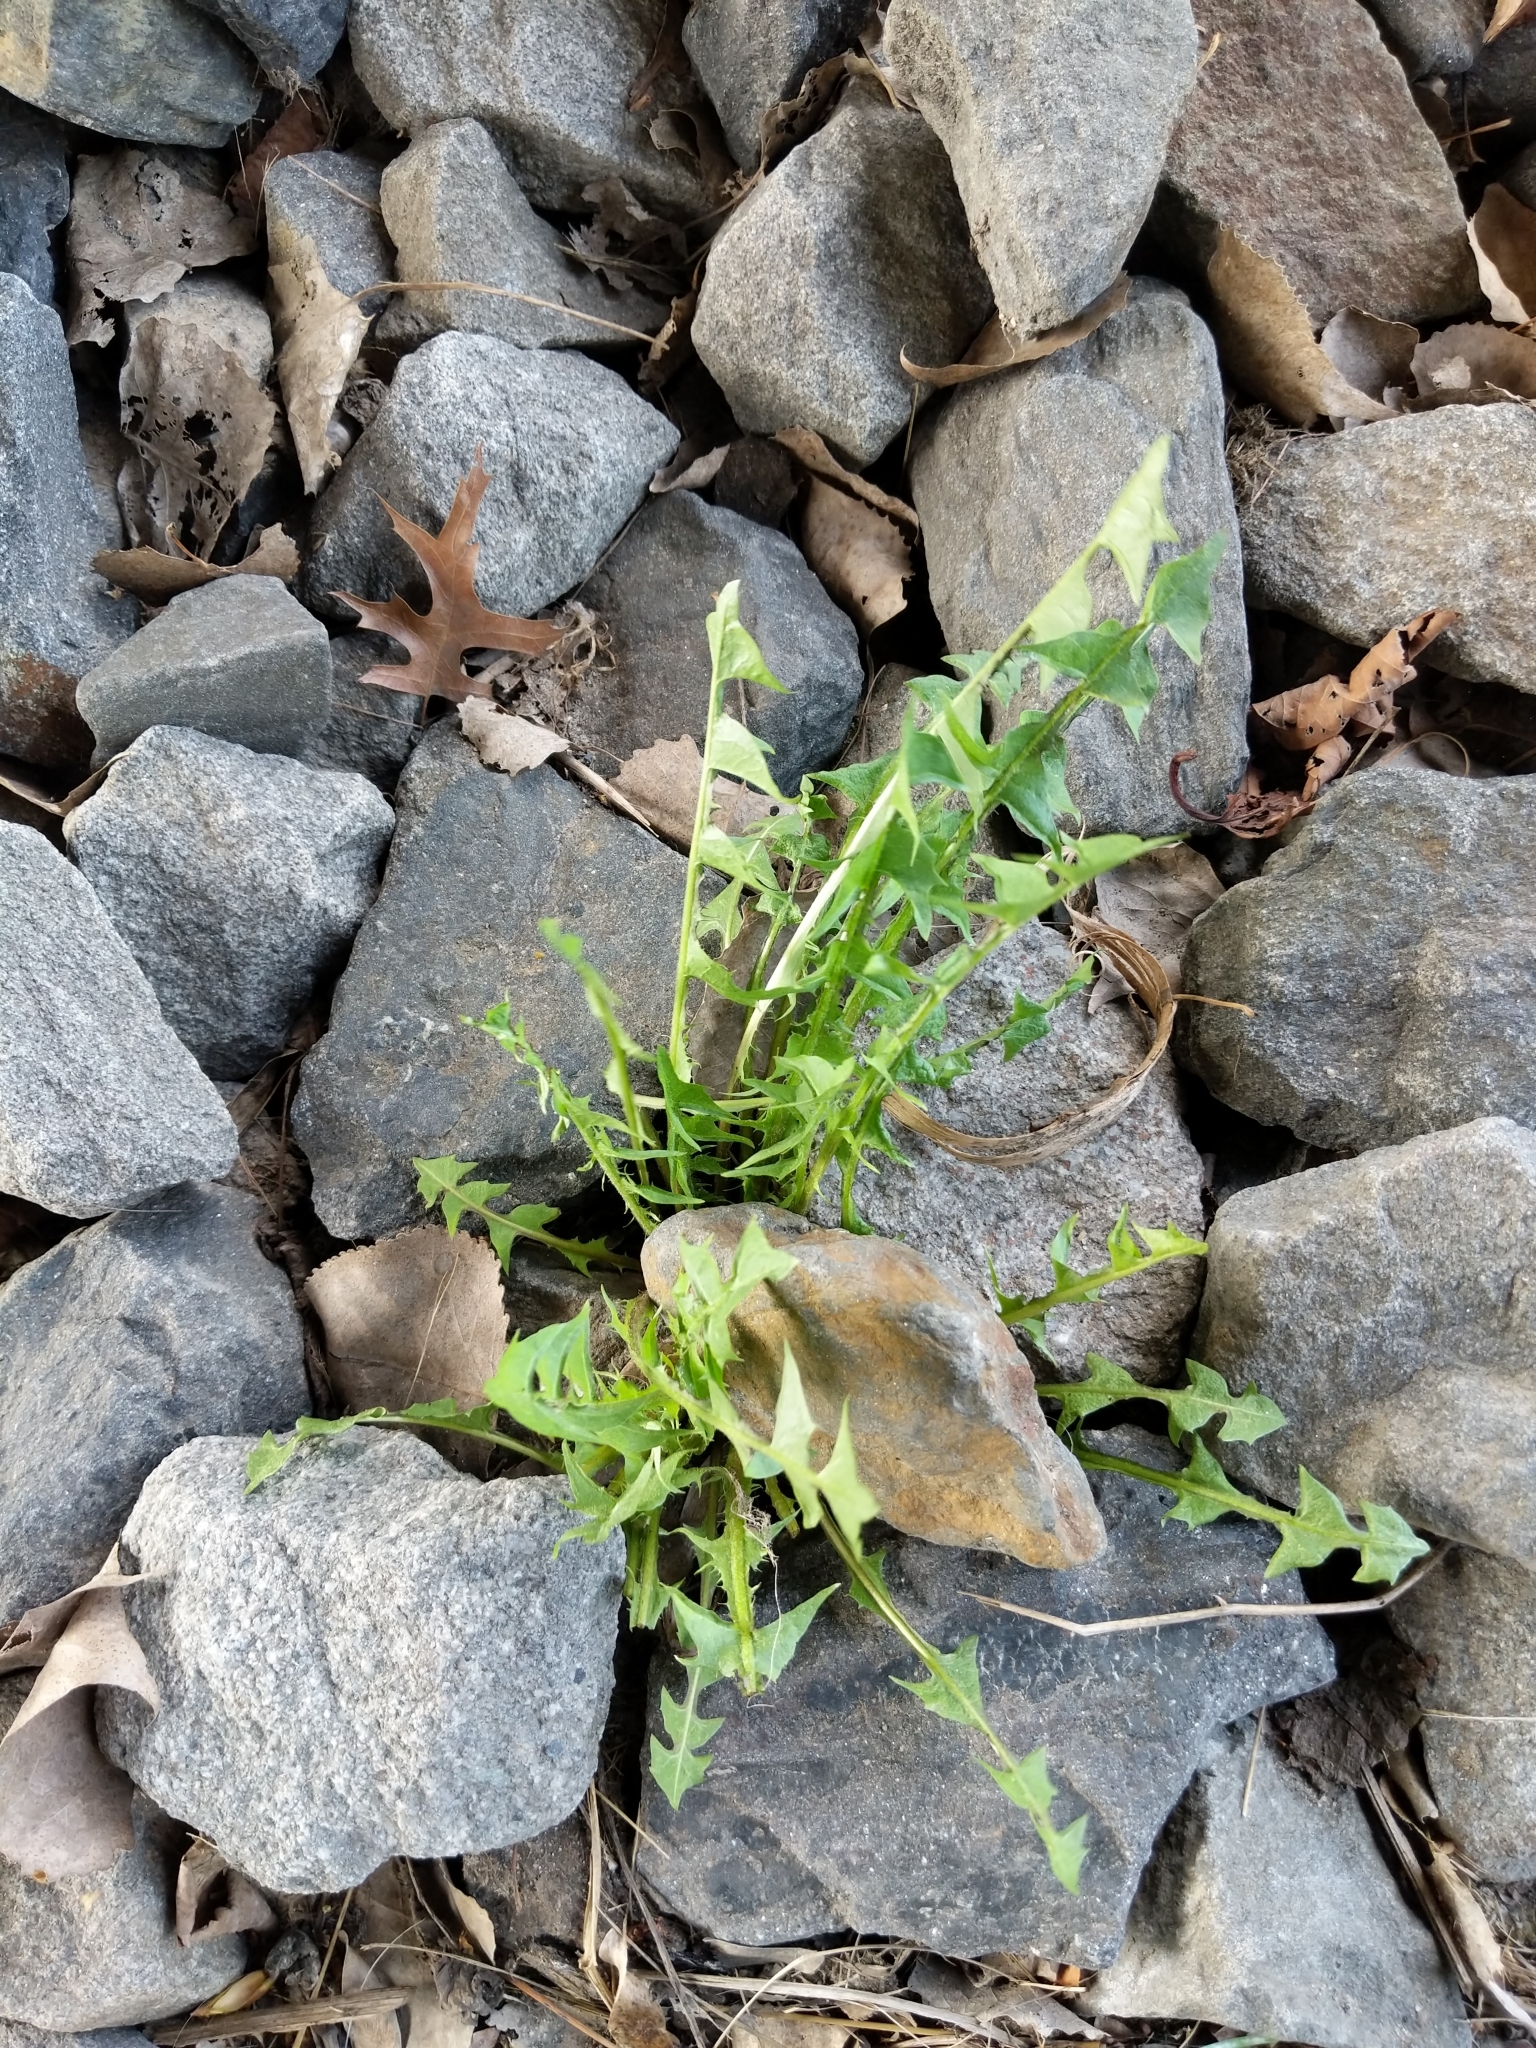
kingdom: Plantae
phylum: Tracheophyta
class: Magnoliopsida
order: Asterales
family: Asteraceae
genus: Taraxacum
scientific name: Taraxacum
